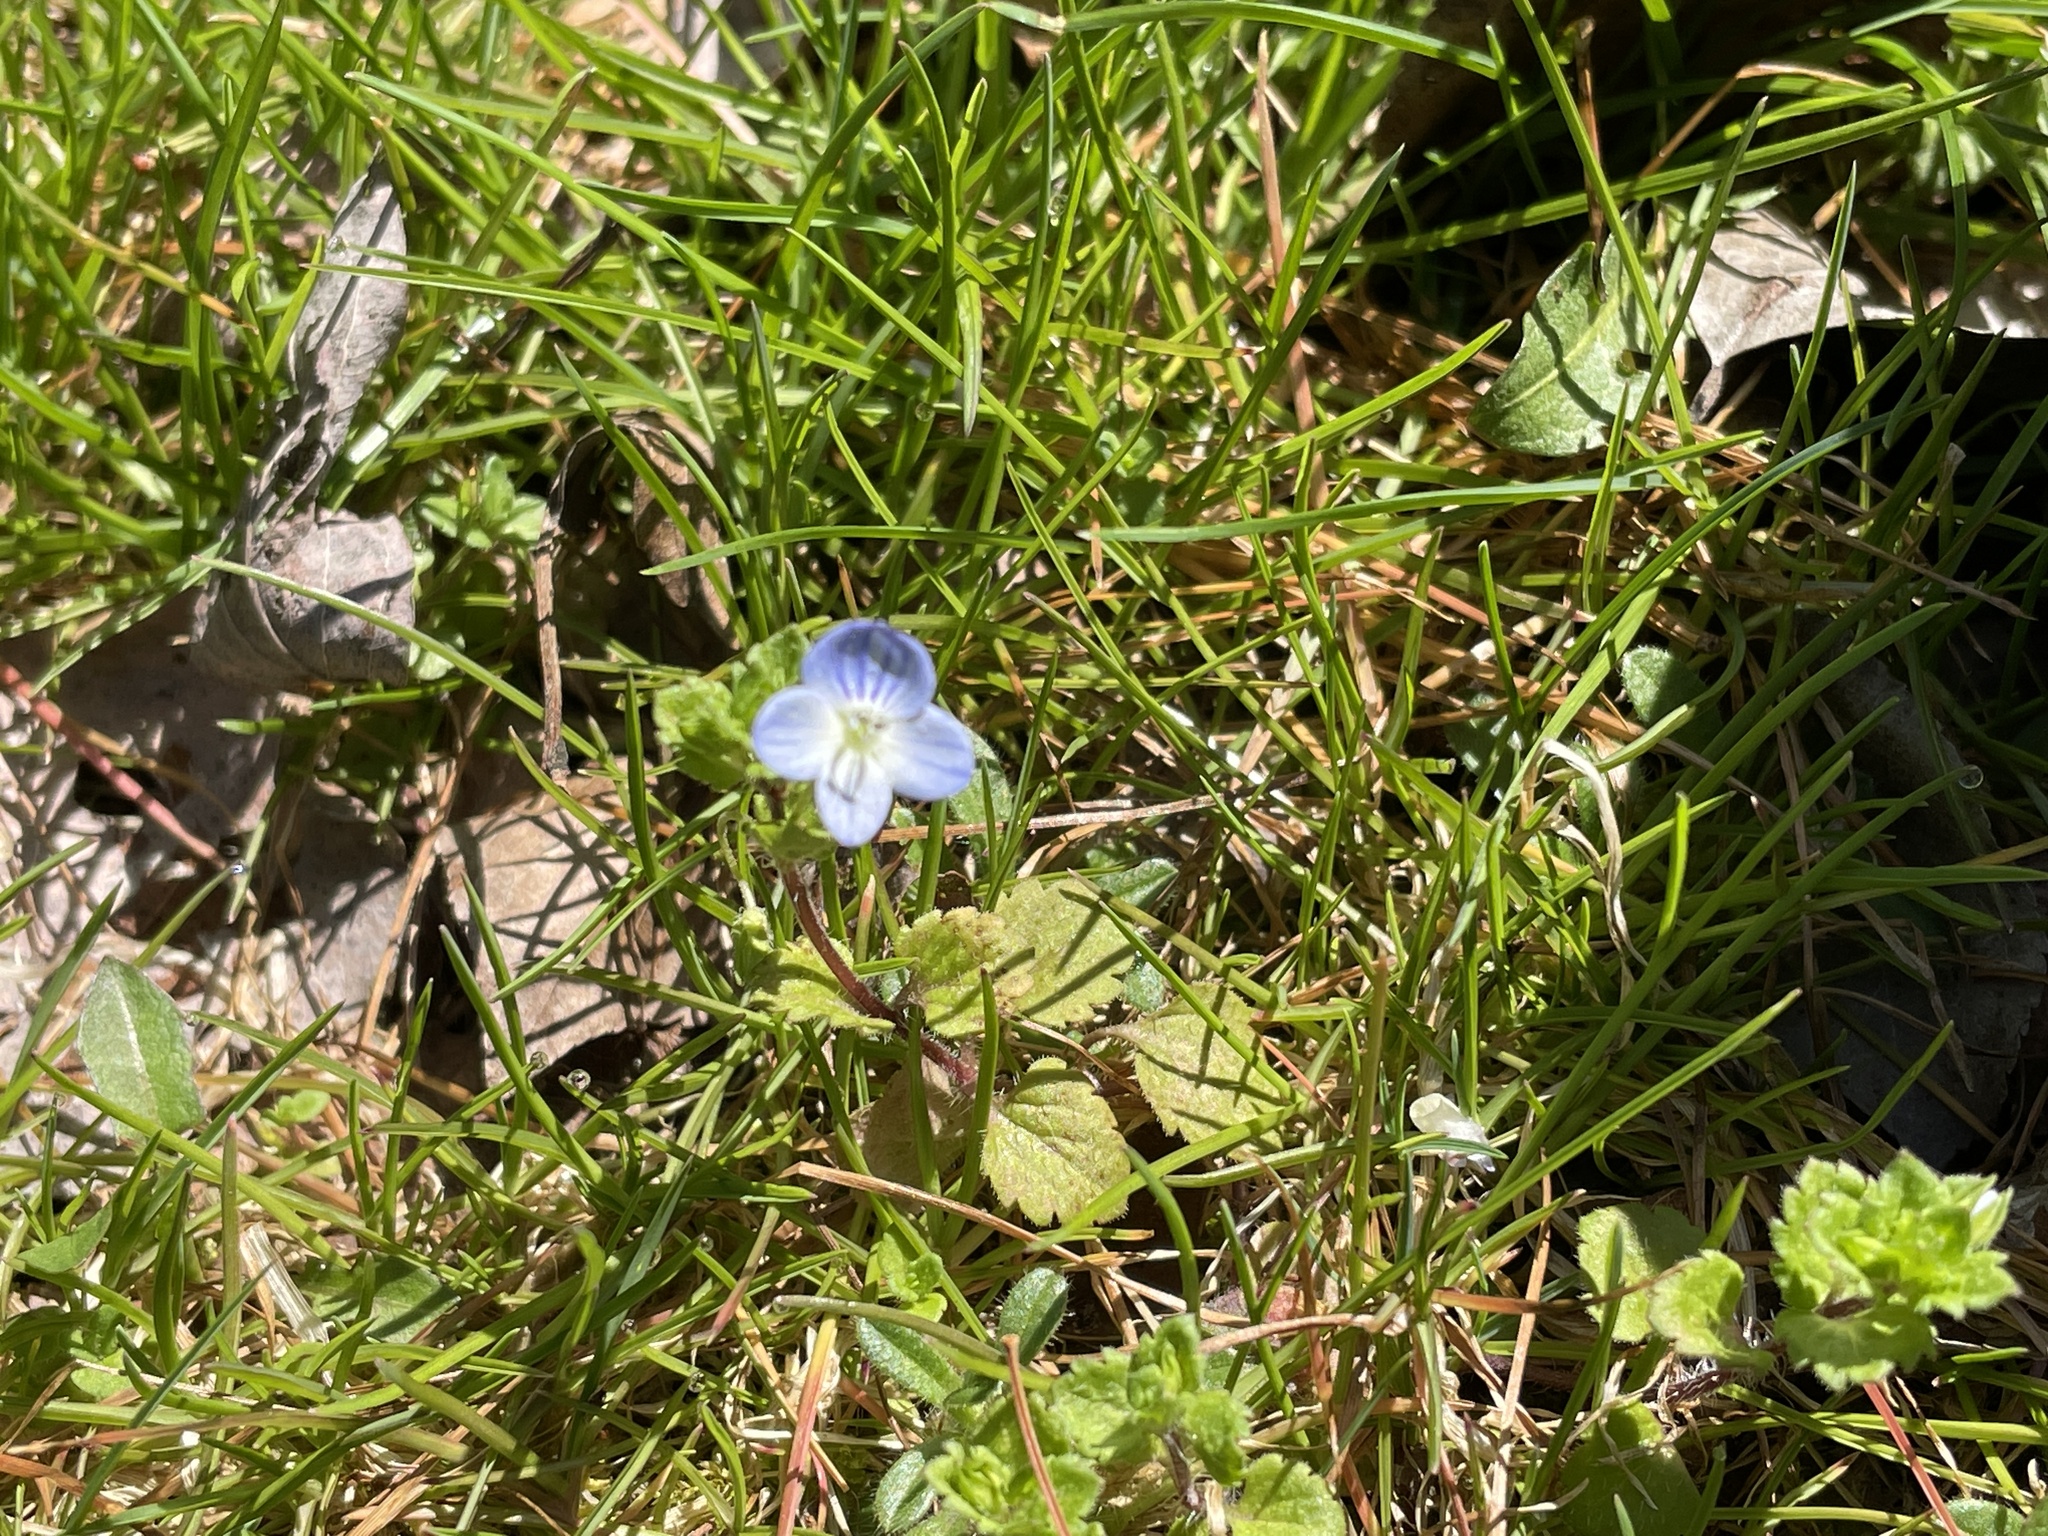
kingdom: Plantae
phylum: Tracheophyta
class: Magnoliopsida
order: Lamiales
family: Plantaginaceae
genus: Veronica
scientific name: Veronica persica
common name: Common field-speedwell
